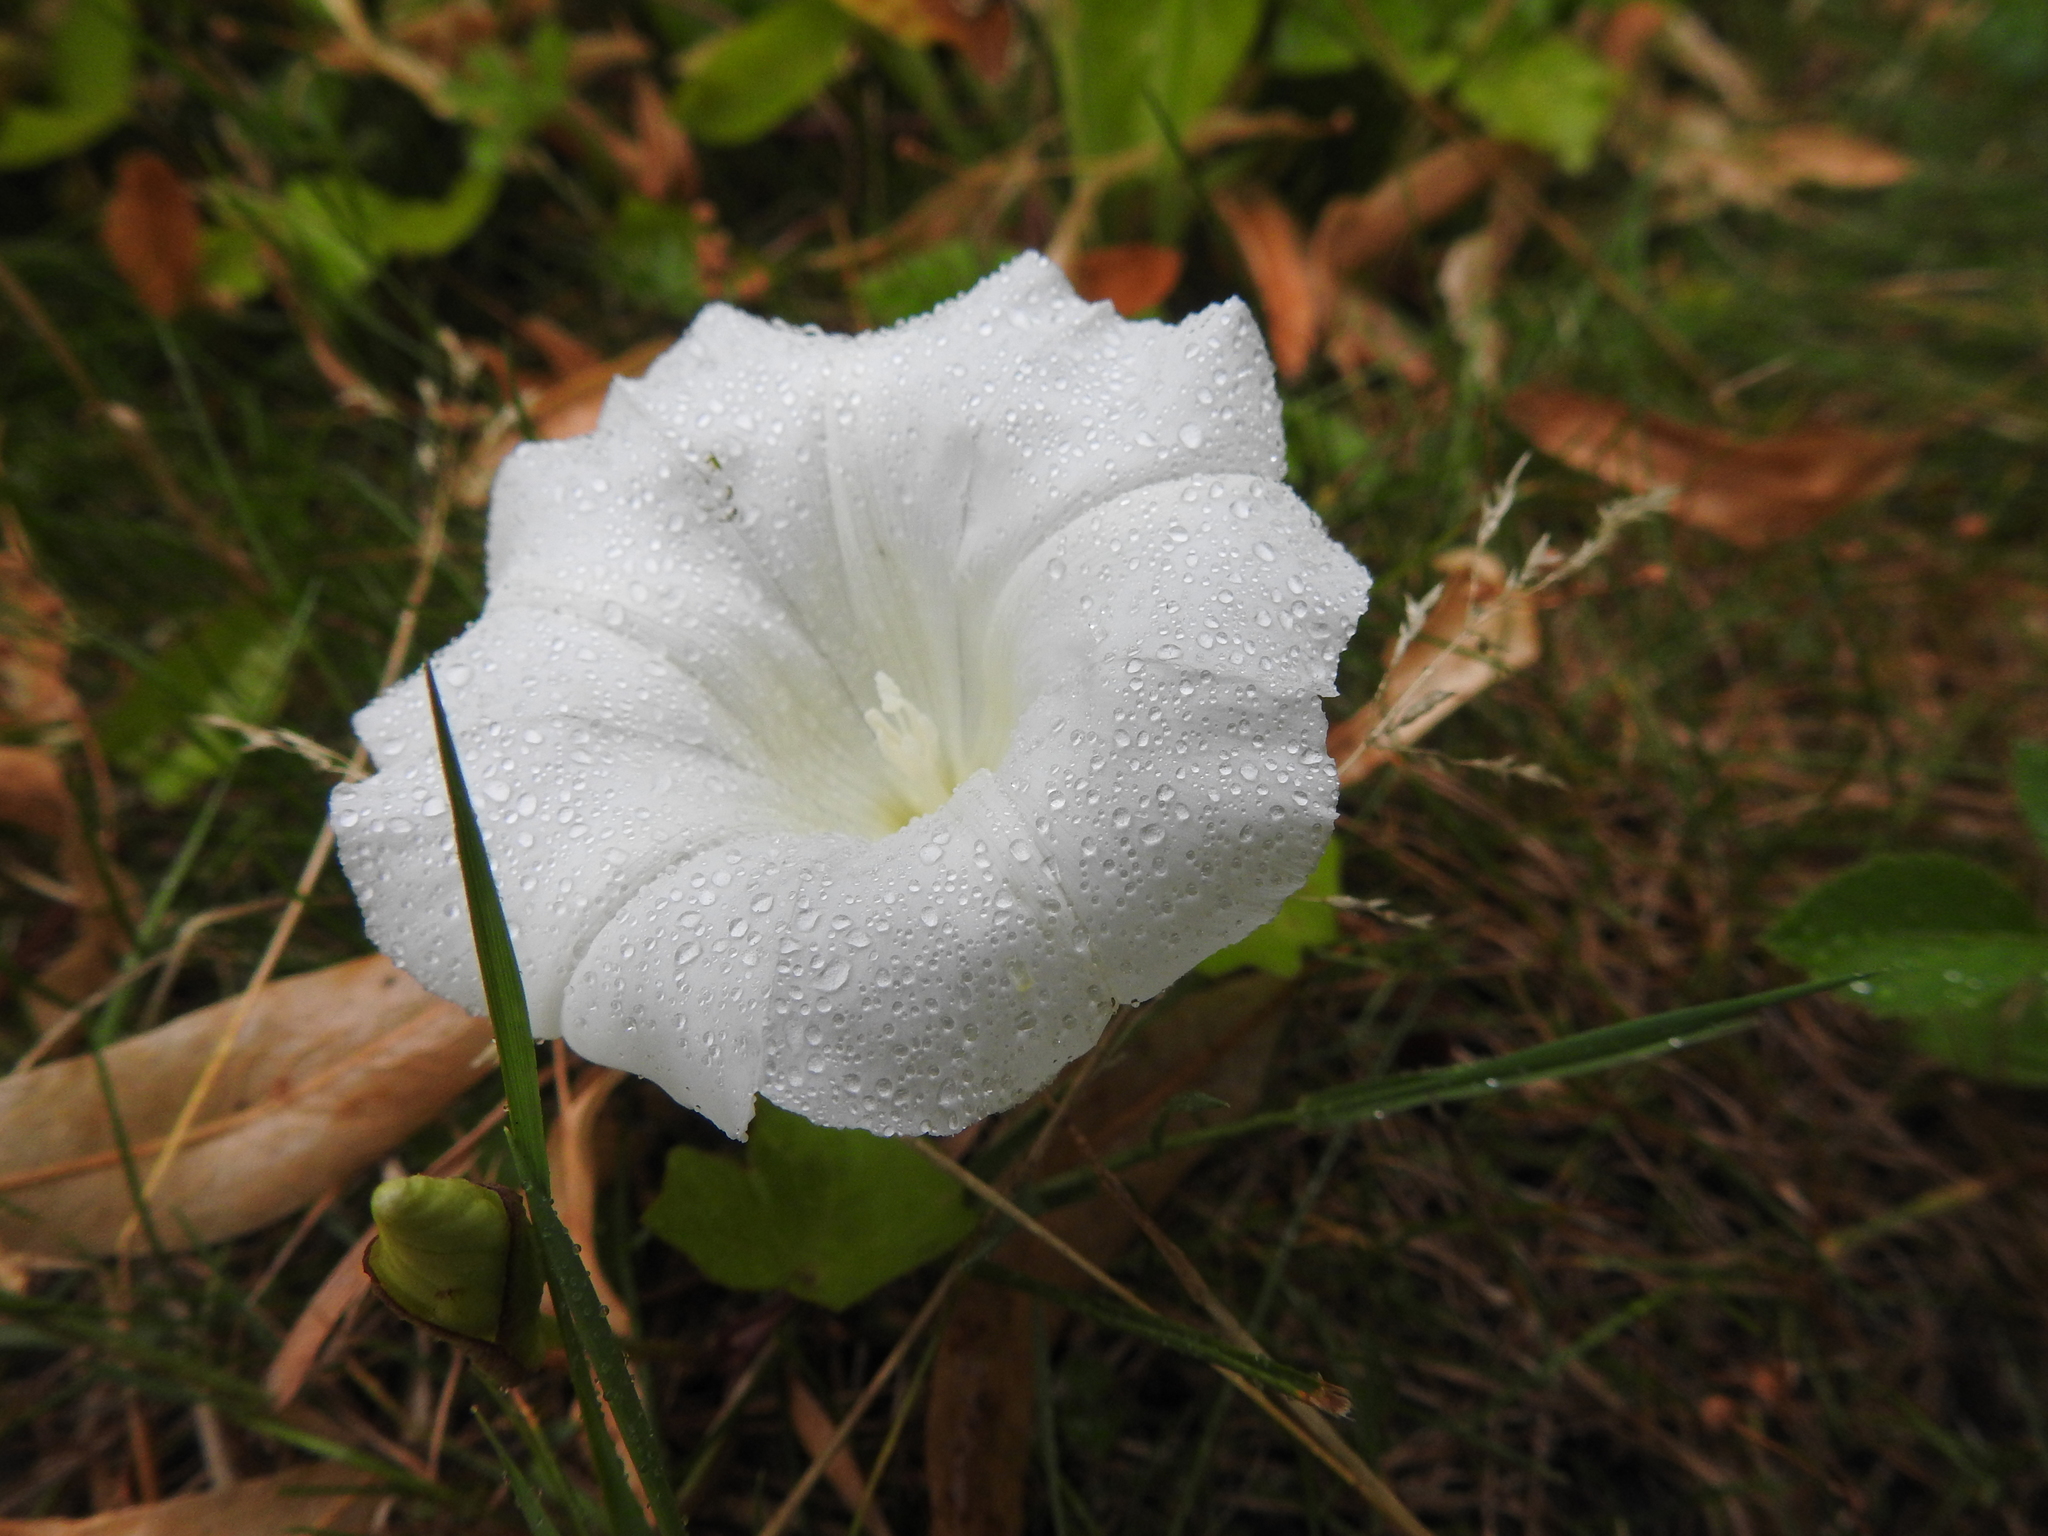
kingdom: Plantae
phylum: Tracheophyta
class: Magnoliopsida
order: Solanales
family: Convolvulaceae
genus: Calystegia
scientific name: Calystegia sepium
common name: Hedge bindweed
